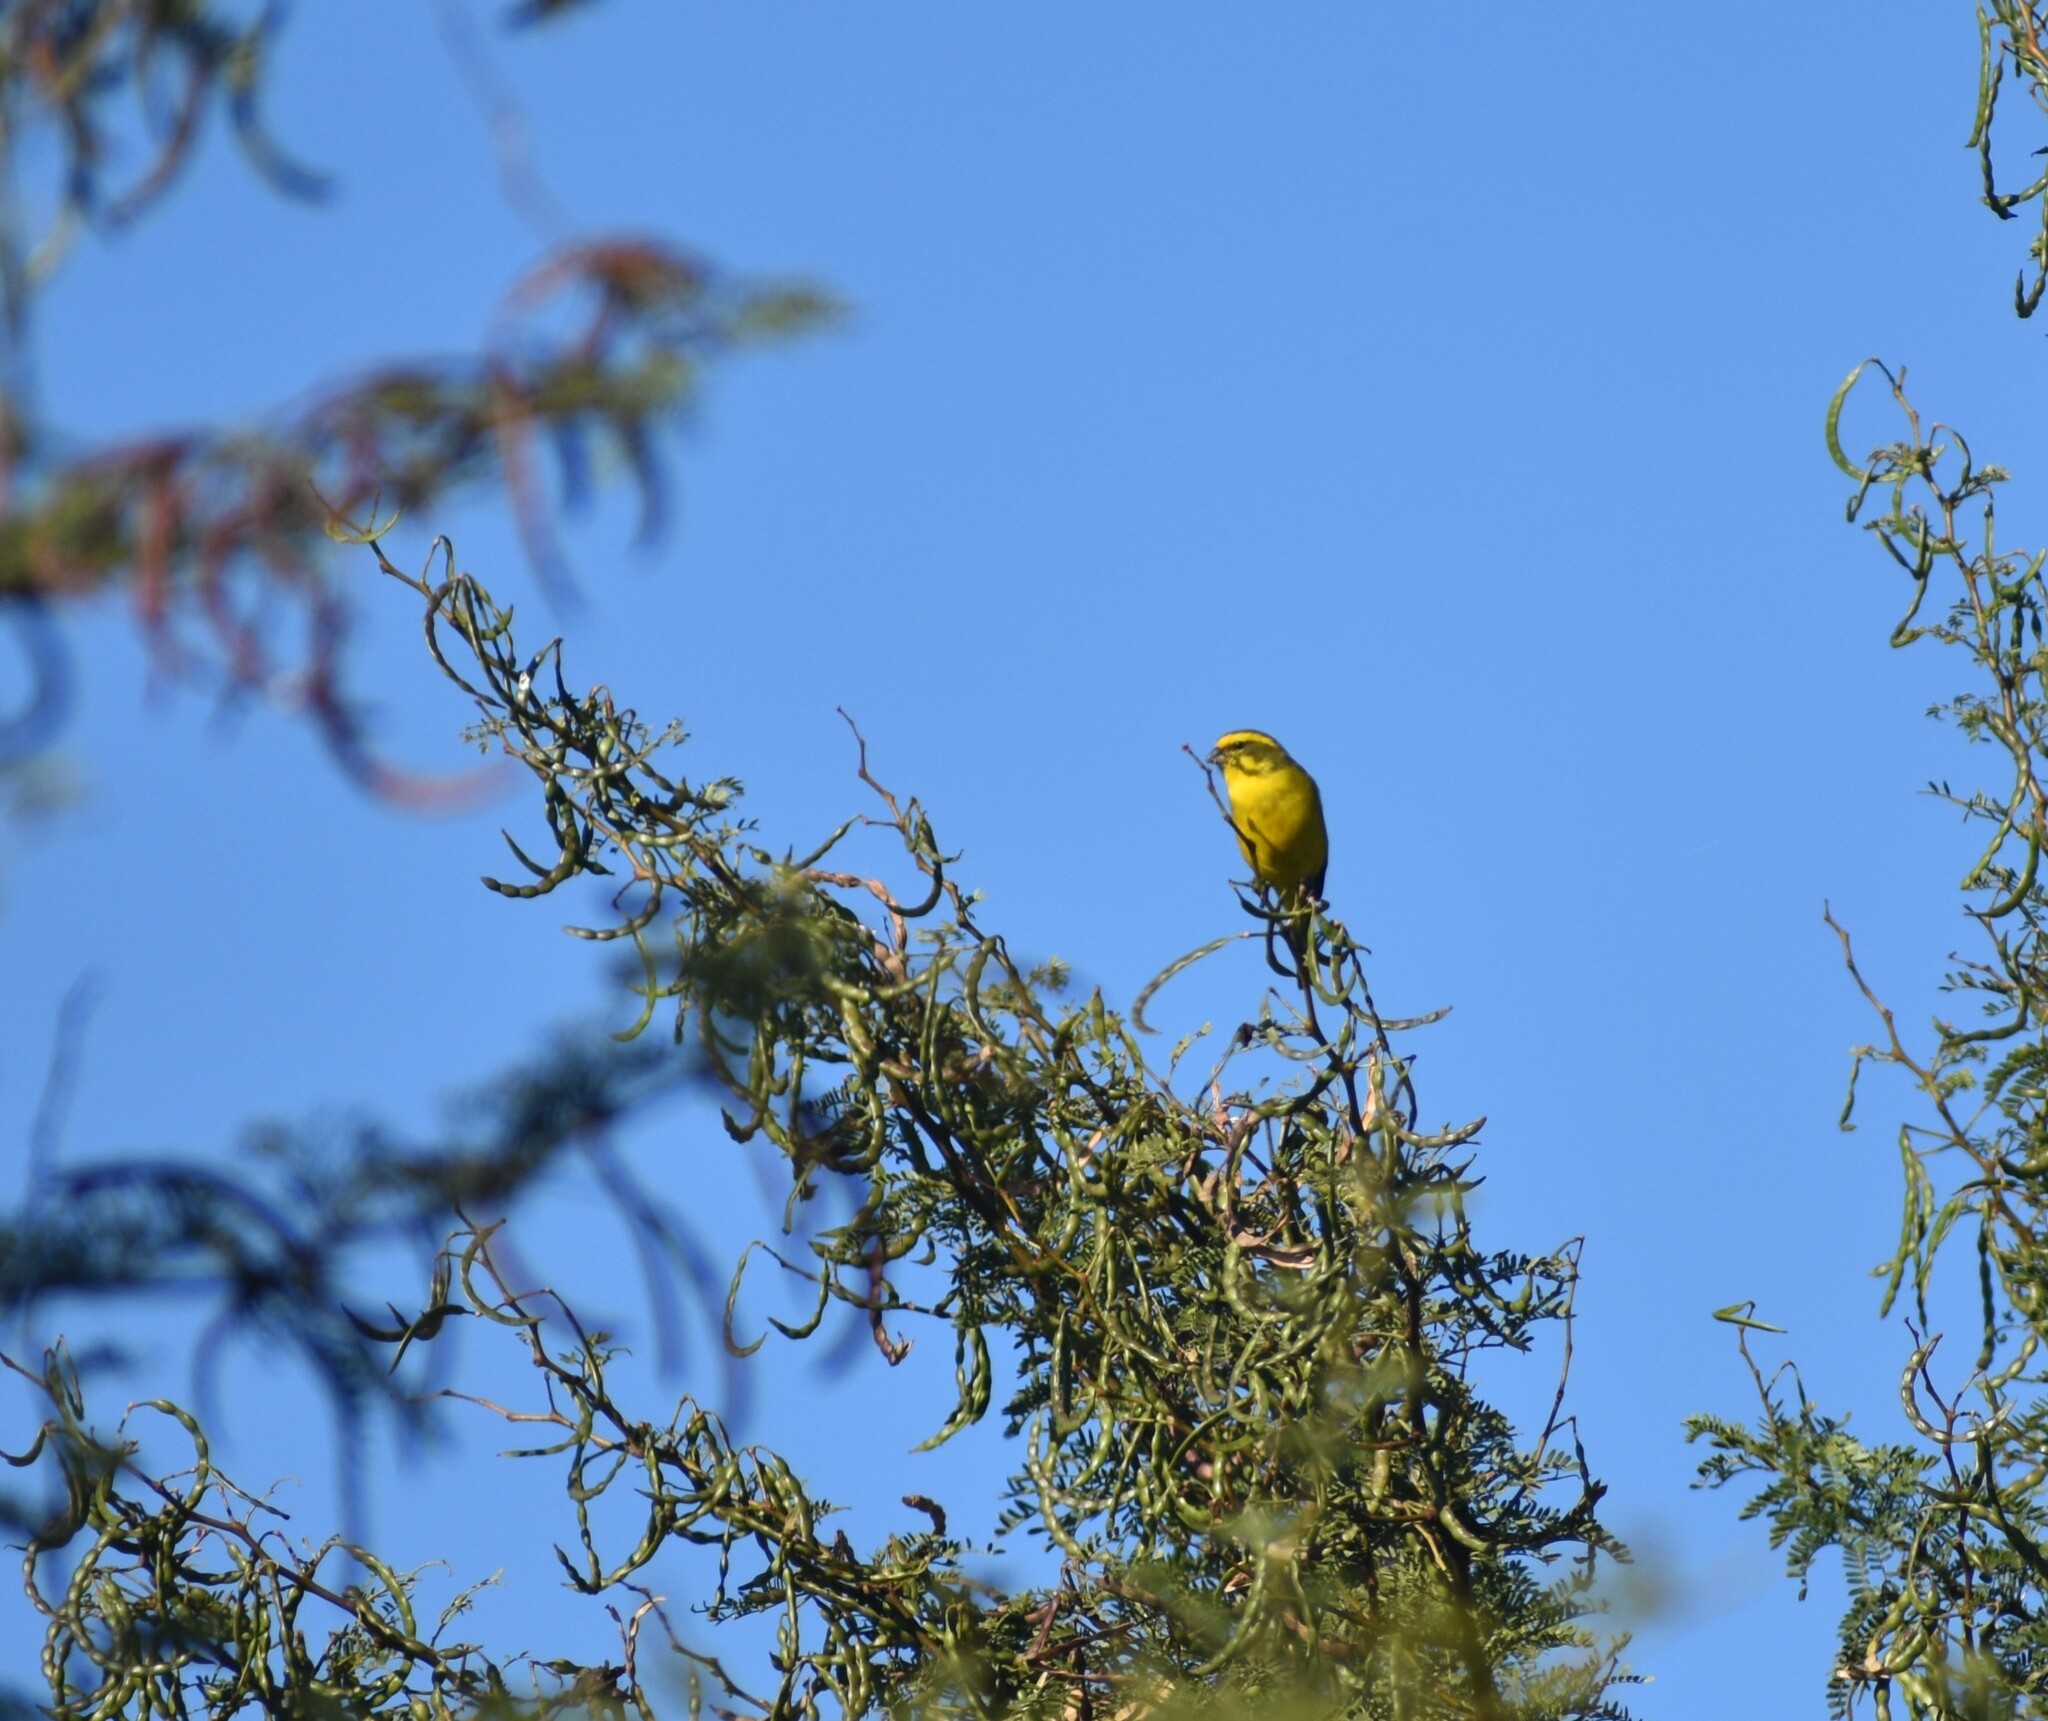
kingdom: Animalia
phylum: Chordata
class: Aves
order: Passeriformes
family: Fringillidae
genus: Crithagra
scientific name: Crithagra flaviventris
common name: Yellow canary
